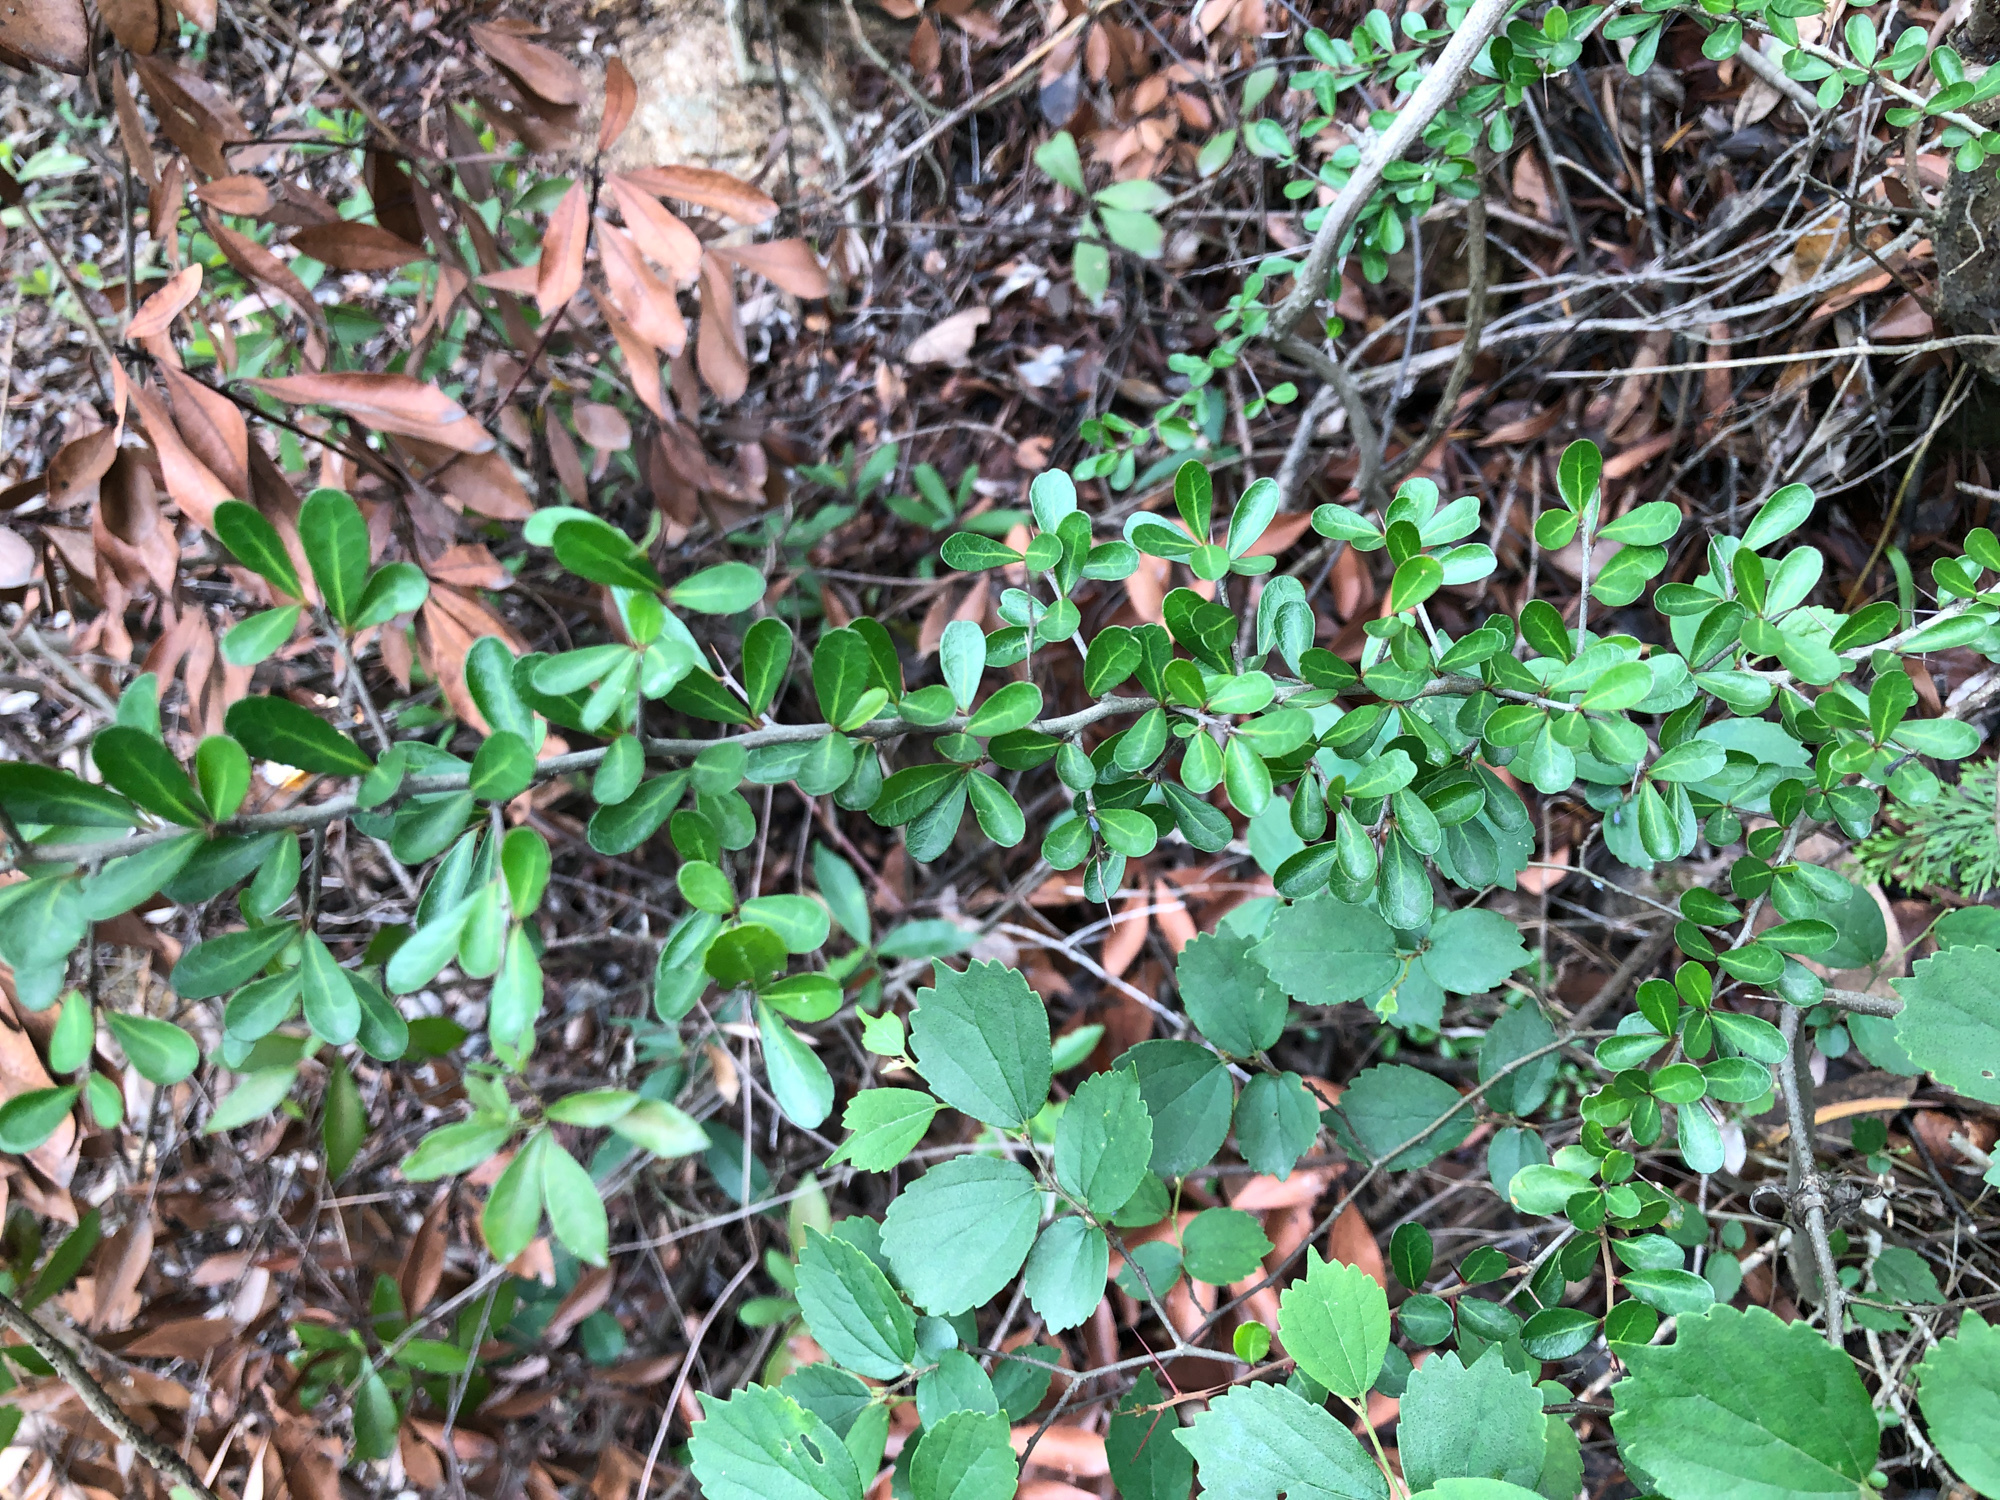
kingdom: Plantae
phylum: Tracheophyta
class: Magnoliopsida
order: Celastrales
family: Celastraceae
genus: Gymnosporia
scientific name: Gymnosporia diversifolia
